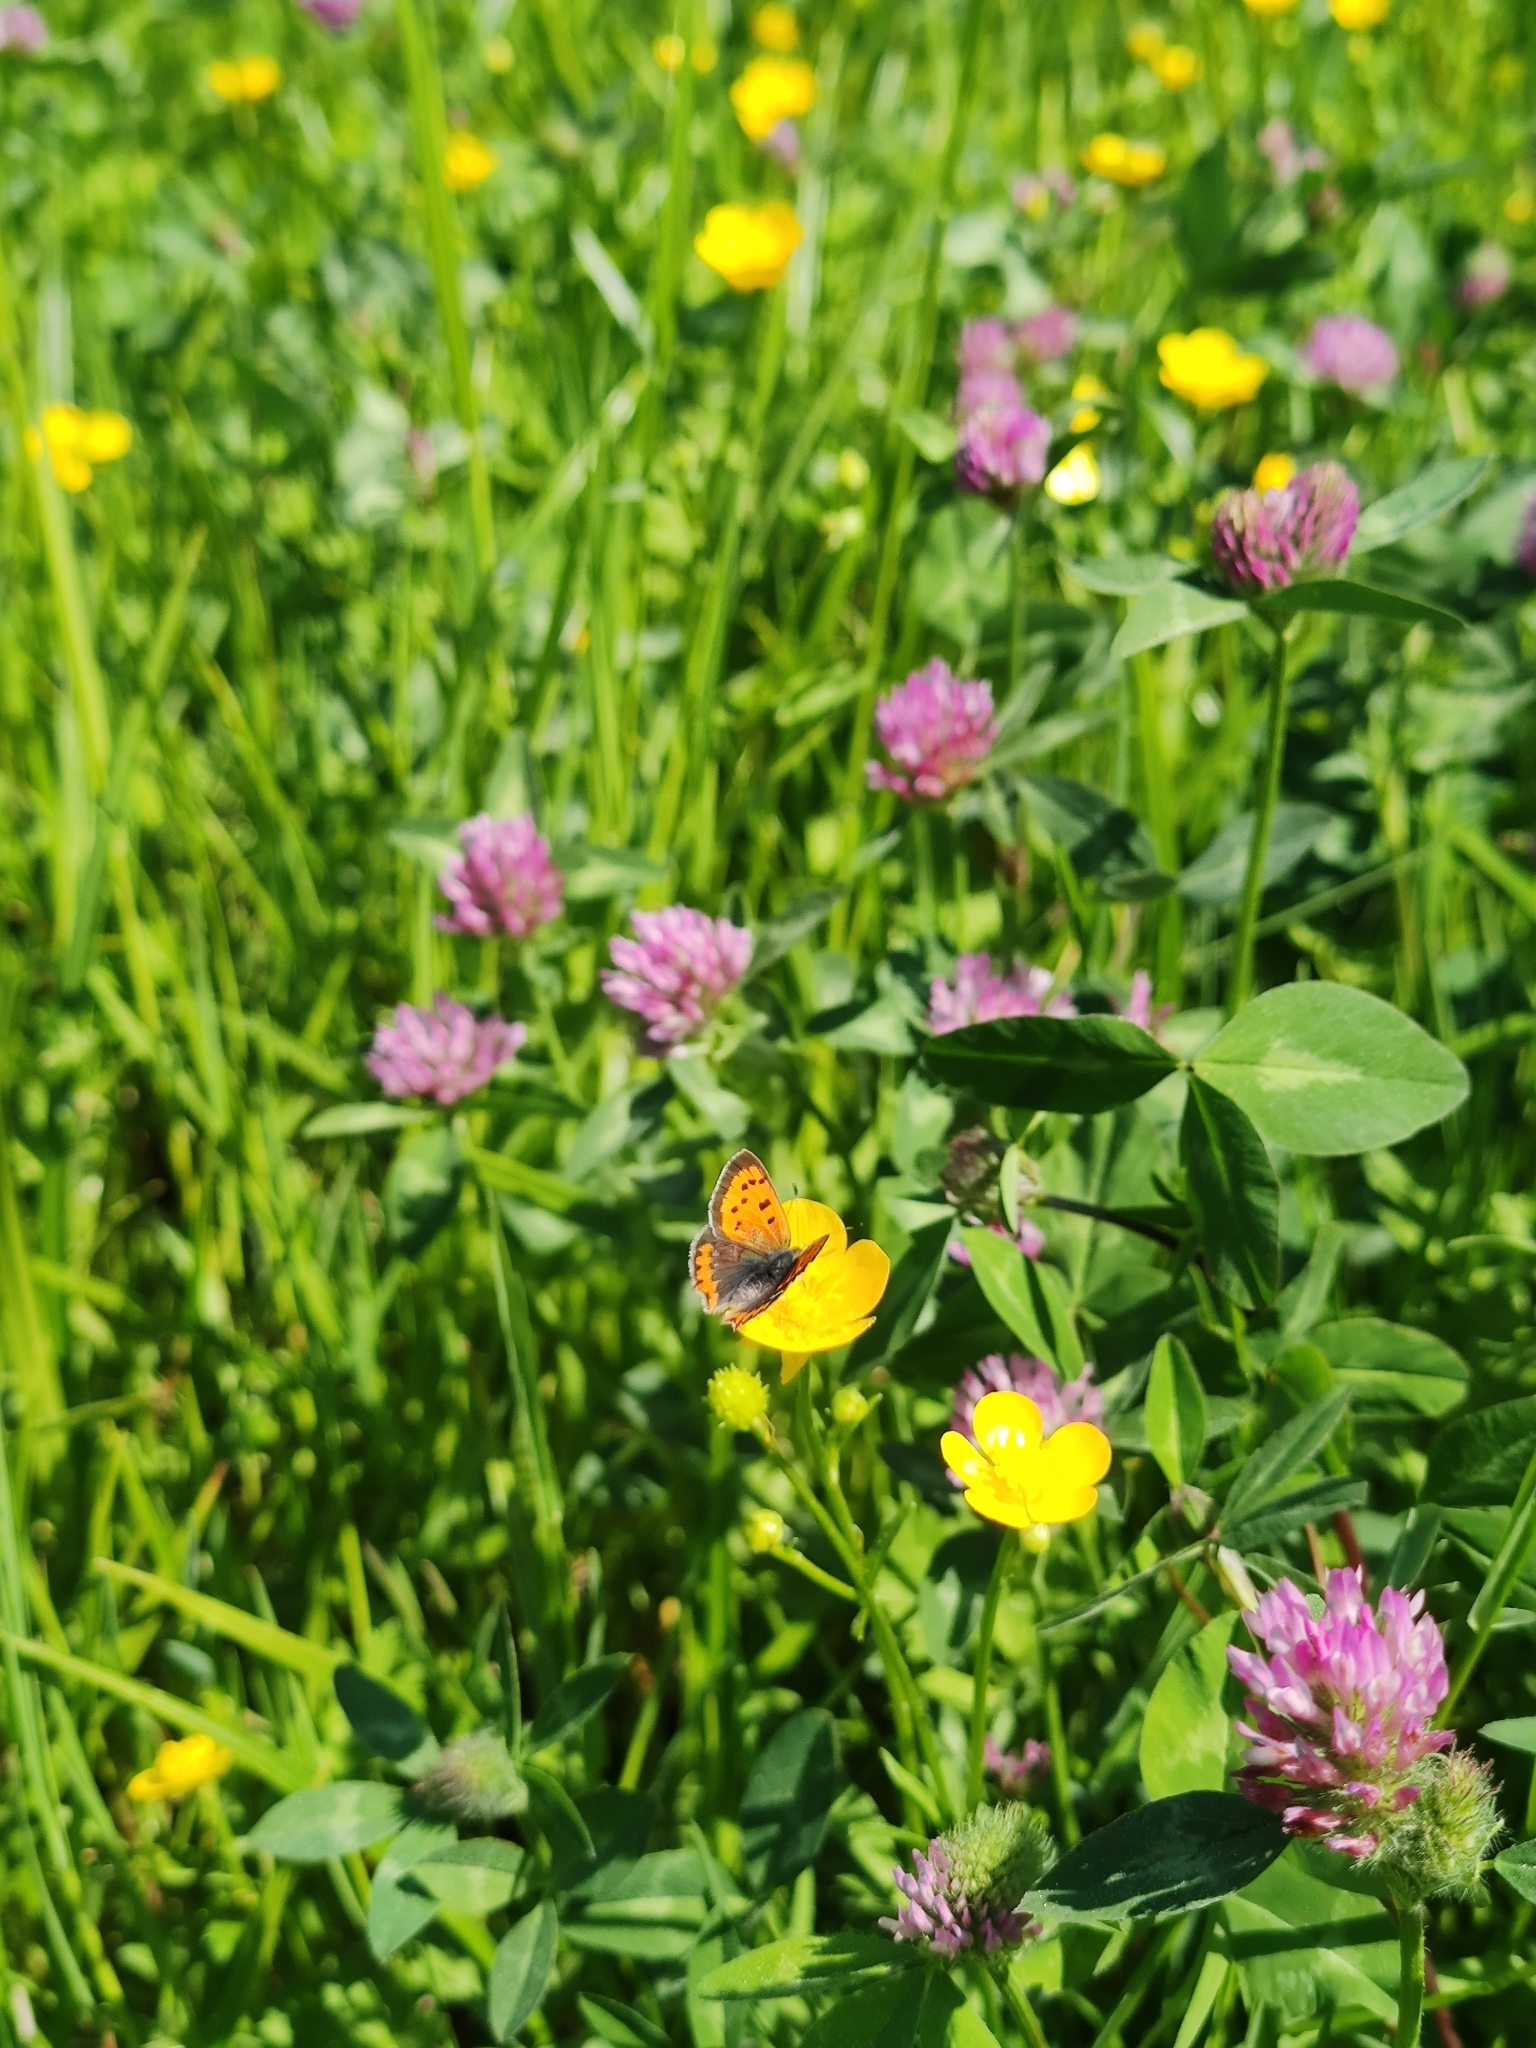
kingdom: Animalia
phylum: Arthropoda
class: Insecta
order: Lepidoptera
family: Lycaenidae
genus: Lycaena
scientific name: Lycaena phlaeas
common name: Small copper
